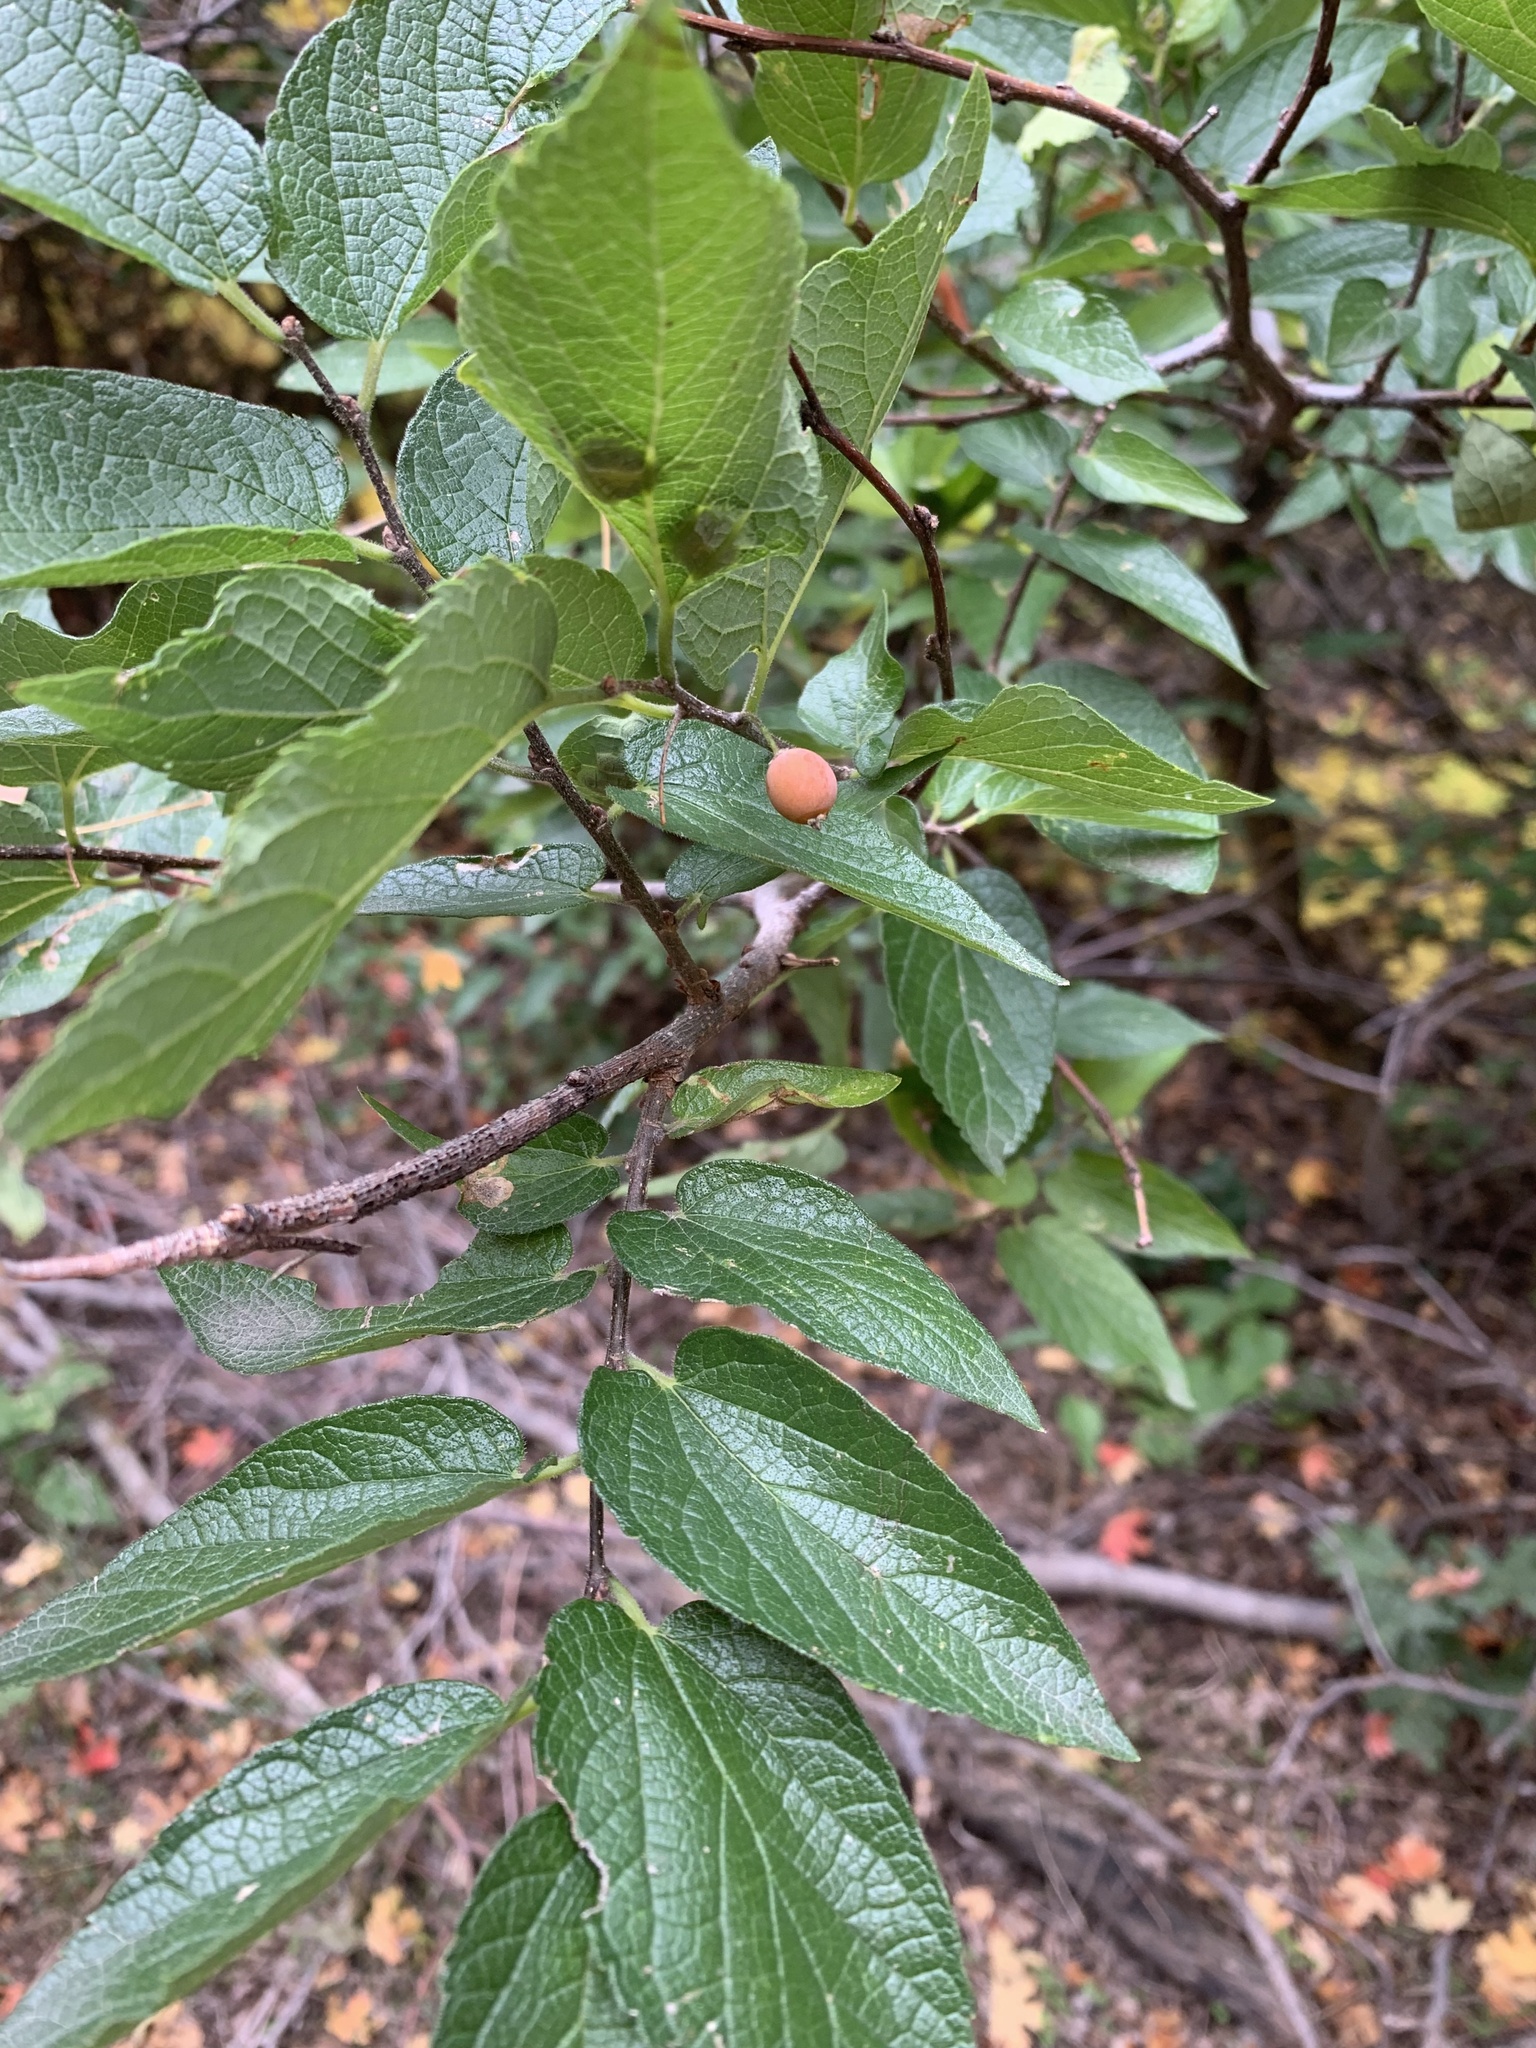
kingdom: Plantae
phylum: Tracheophyta
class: Magnoliopsida
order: Rosales
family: Cannabaceae
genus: Celtis
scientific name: Celtis reticulata
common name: Netleaf hackberry
